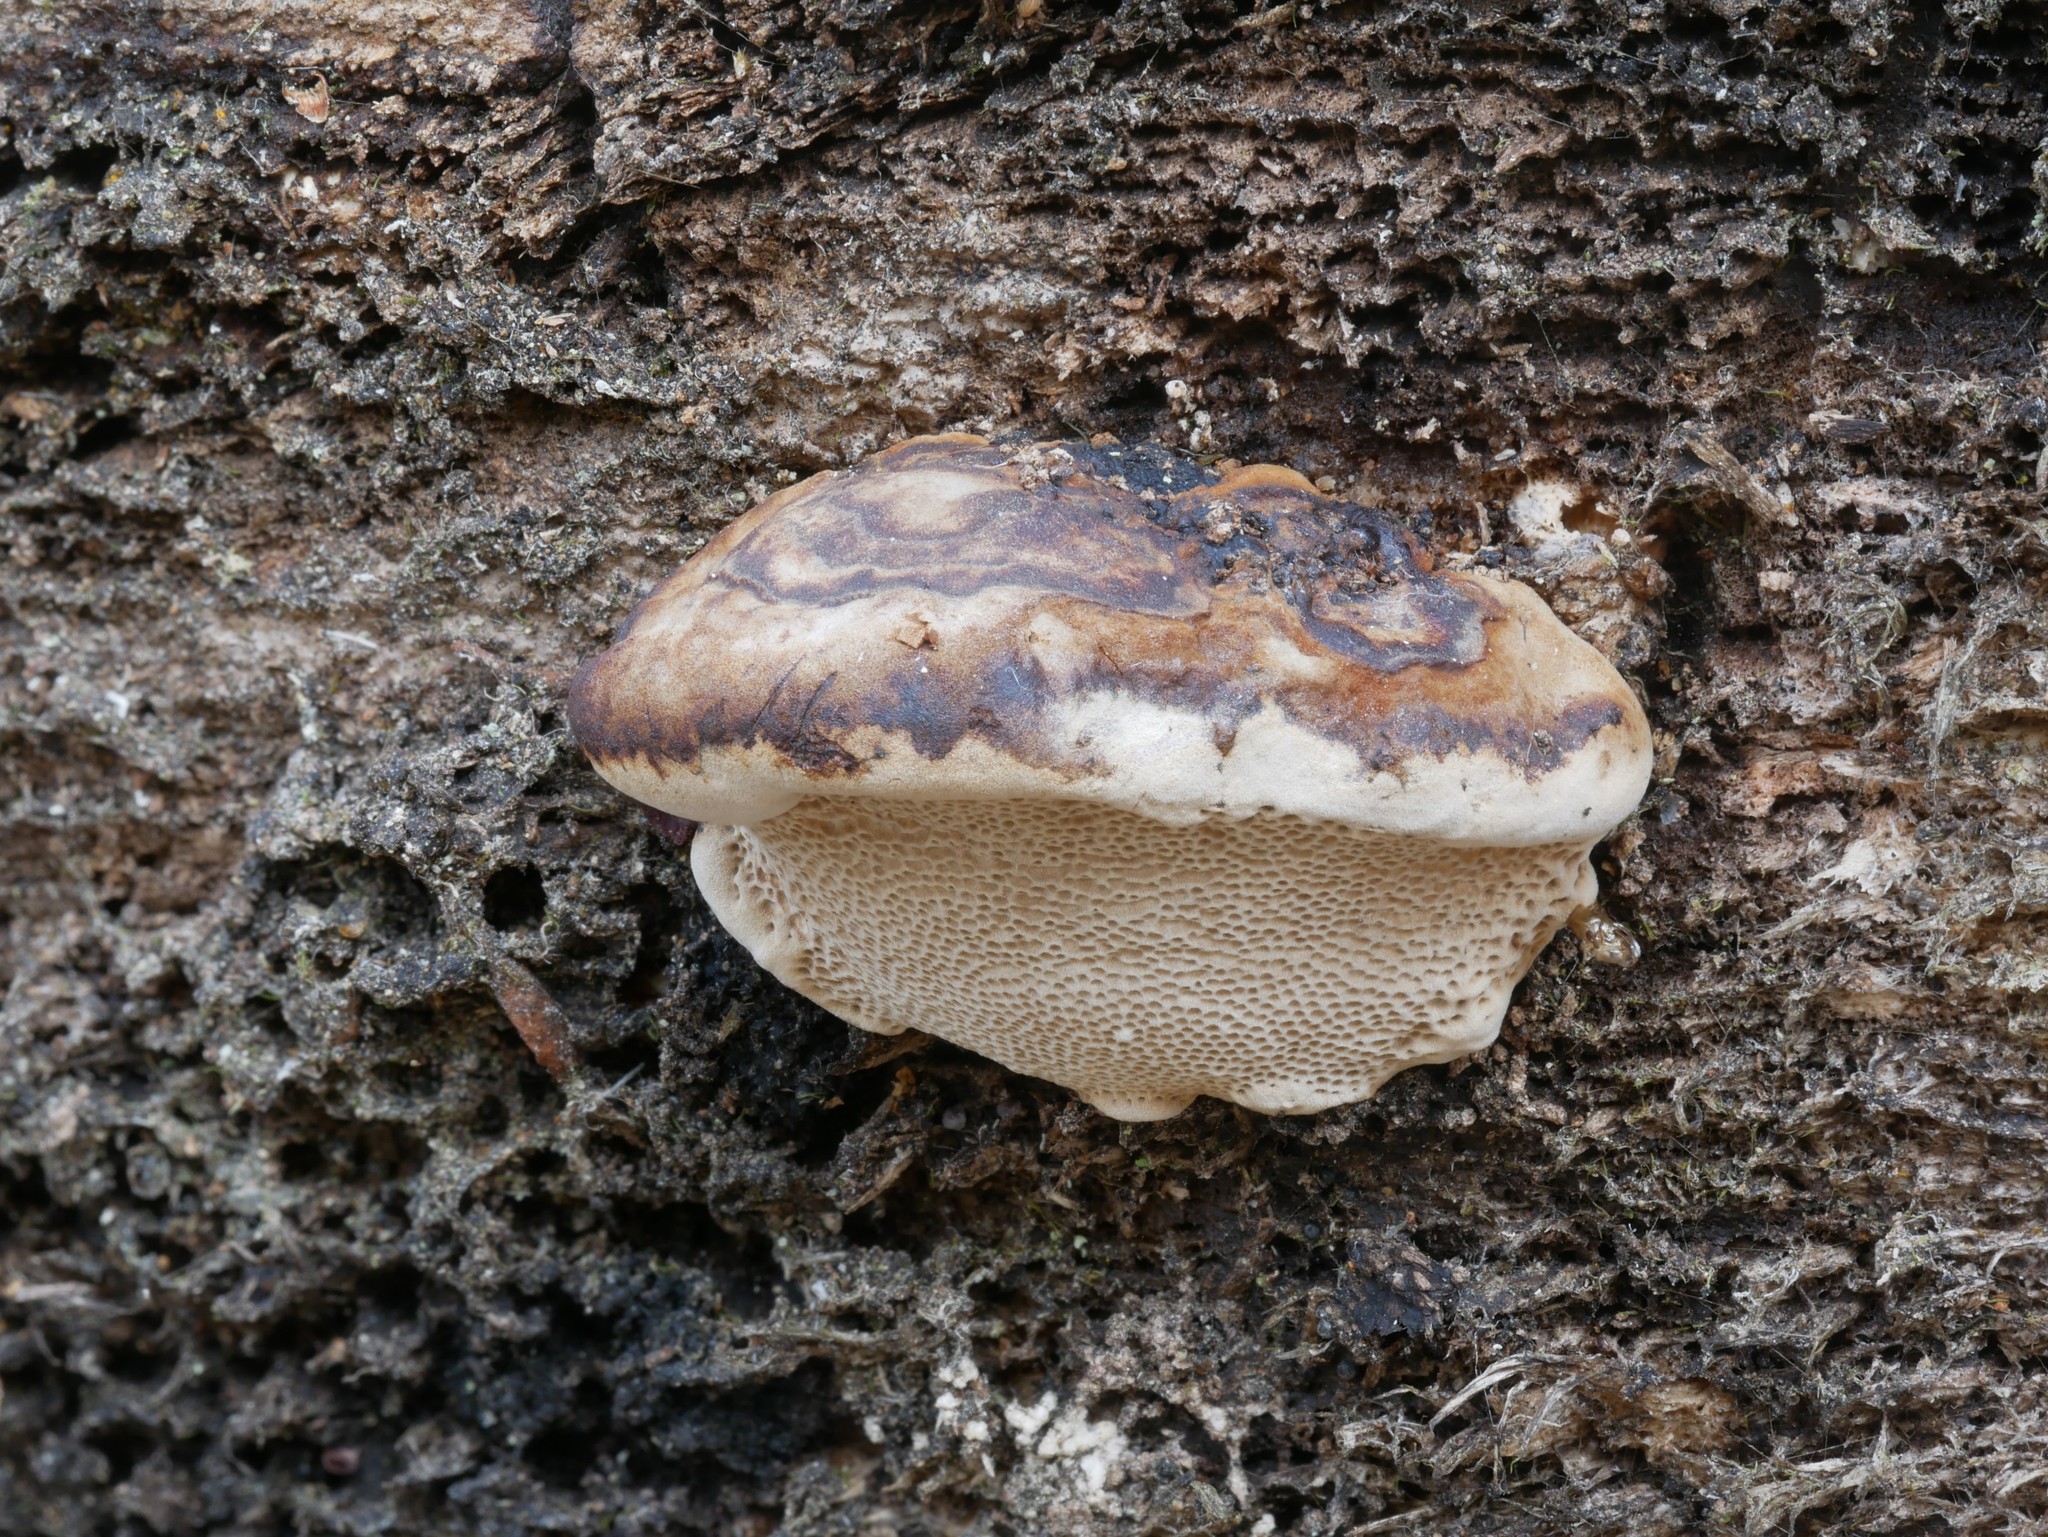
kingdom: Fungi
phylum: Basidiomycota
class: Agaricomycetes
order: Polyporales
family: Polyporaceae
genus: Perenniporia
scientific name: Perenniporia ohiensis
